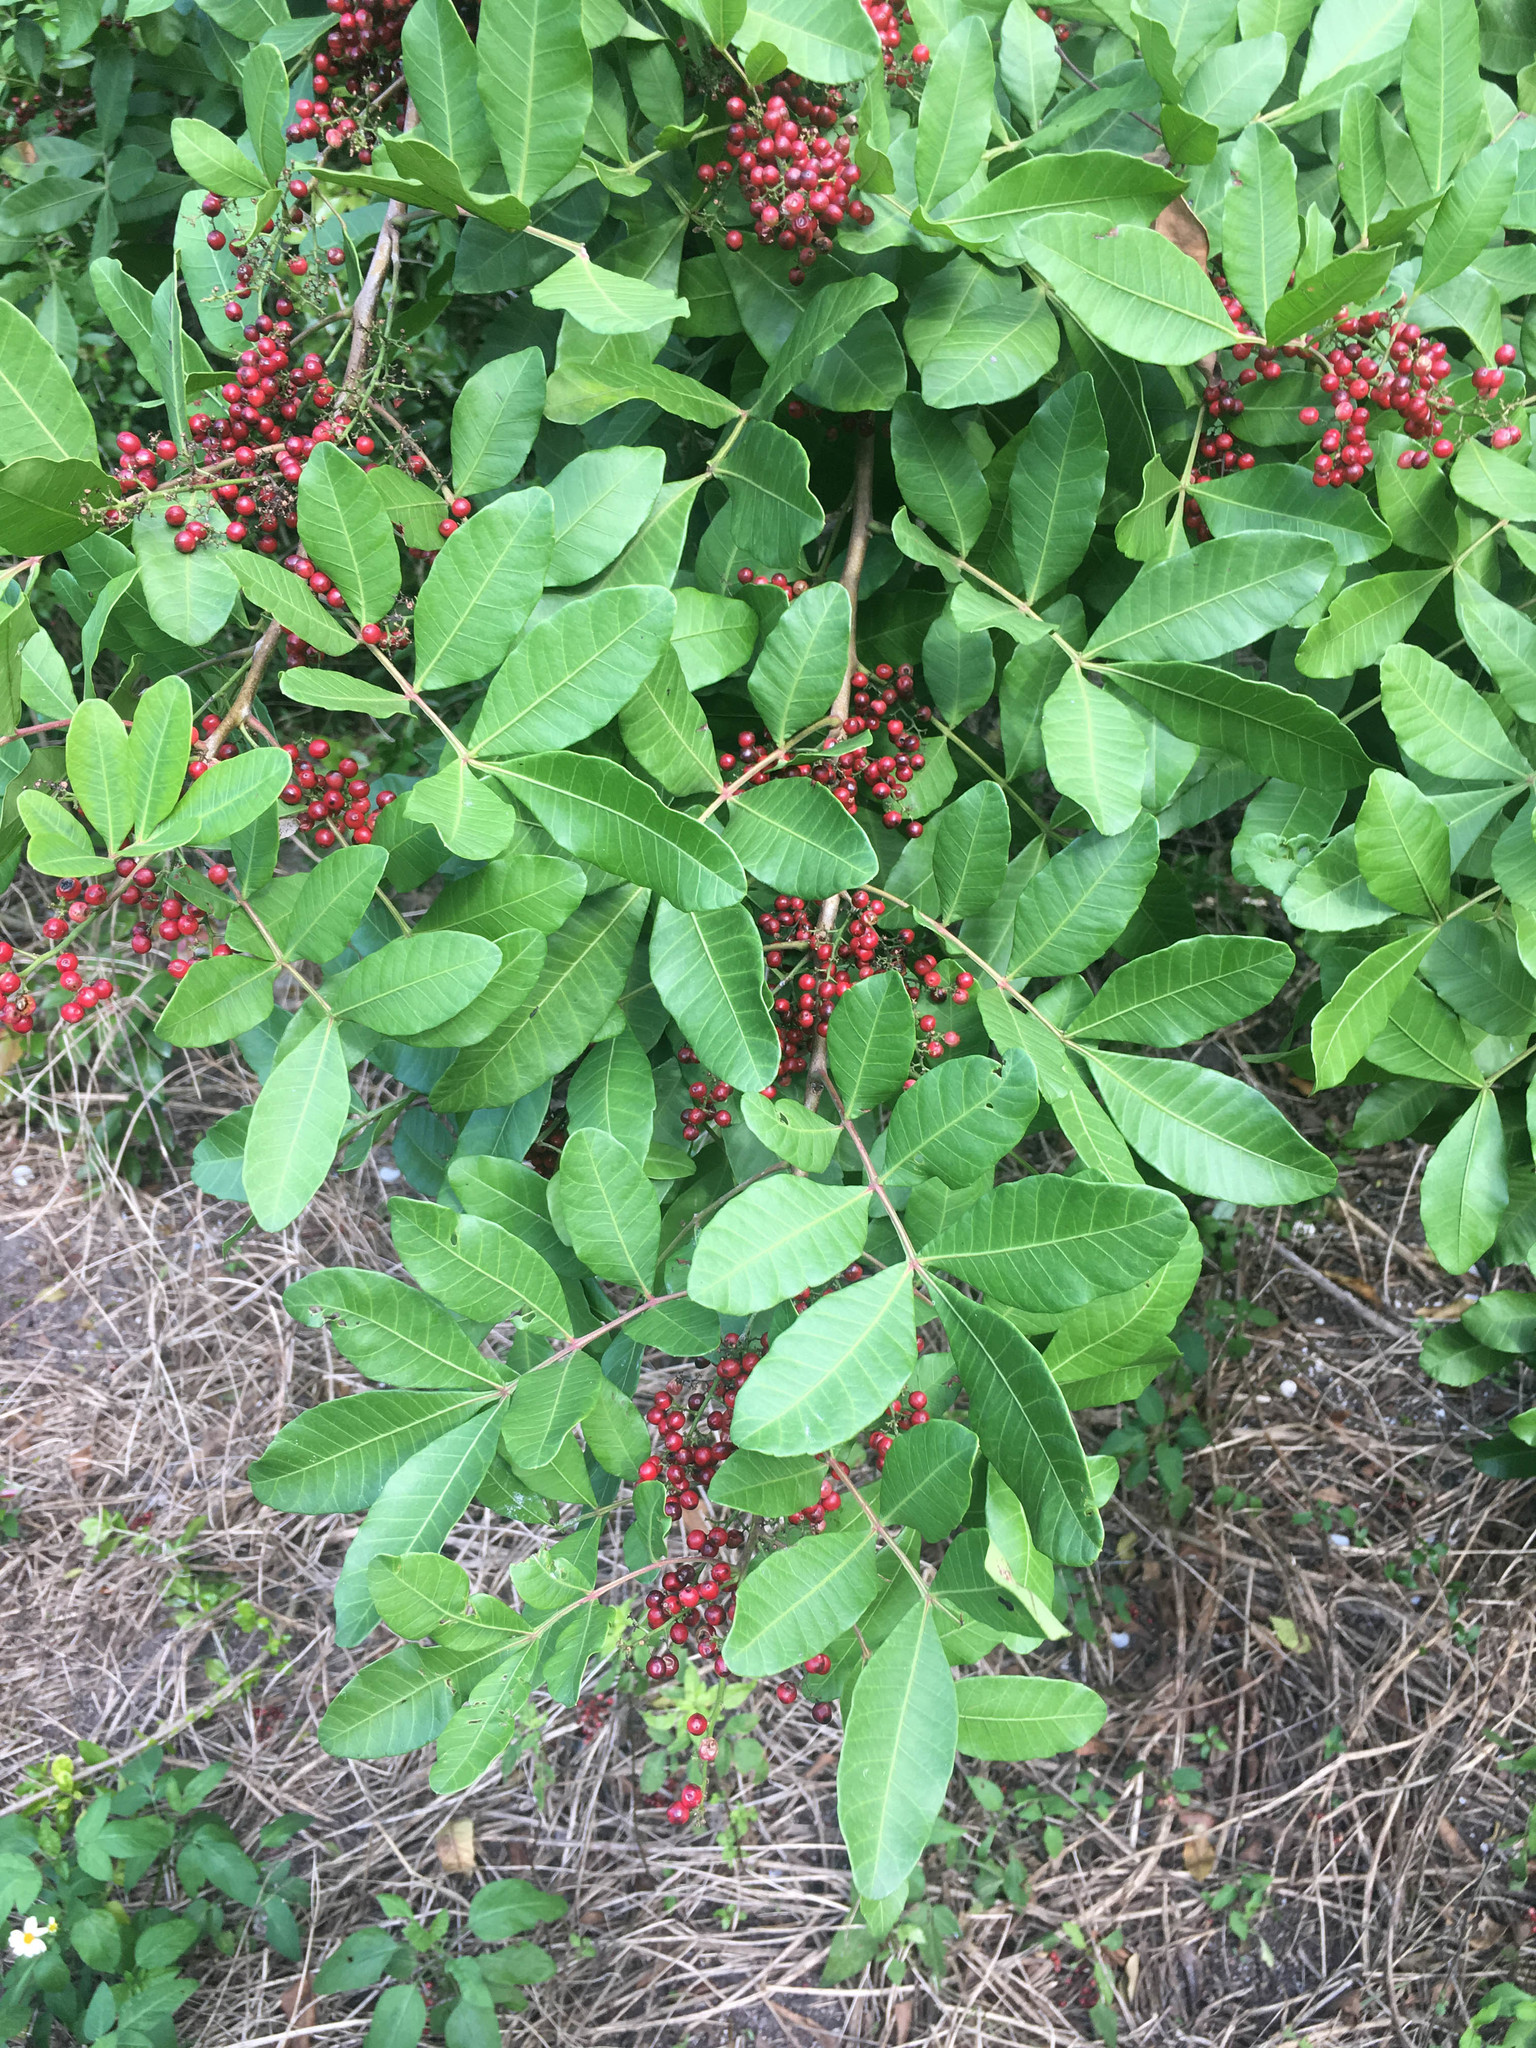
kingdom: Plantae
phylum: Tracheophyta
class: Magnoliopsida
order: Sapindales
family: Anacardiaceae
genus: Schinus
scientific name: Schinus terebinthifolia
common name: Brazilian peppertree
